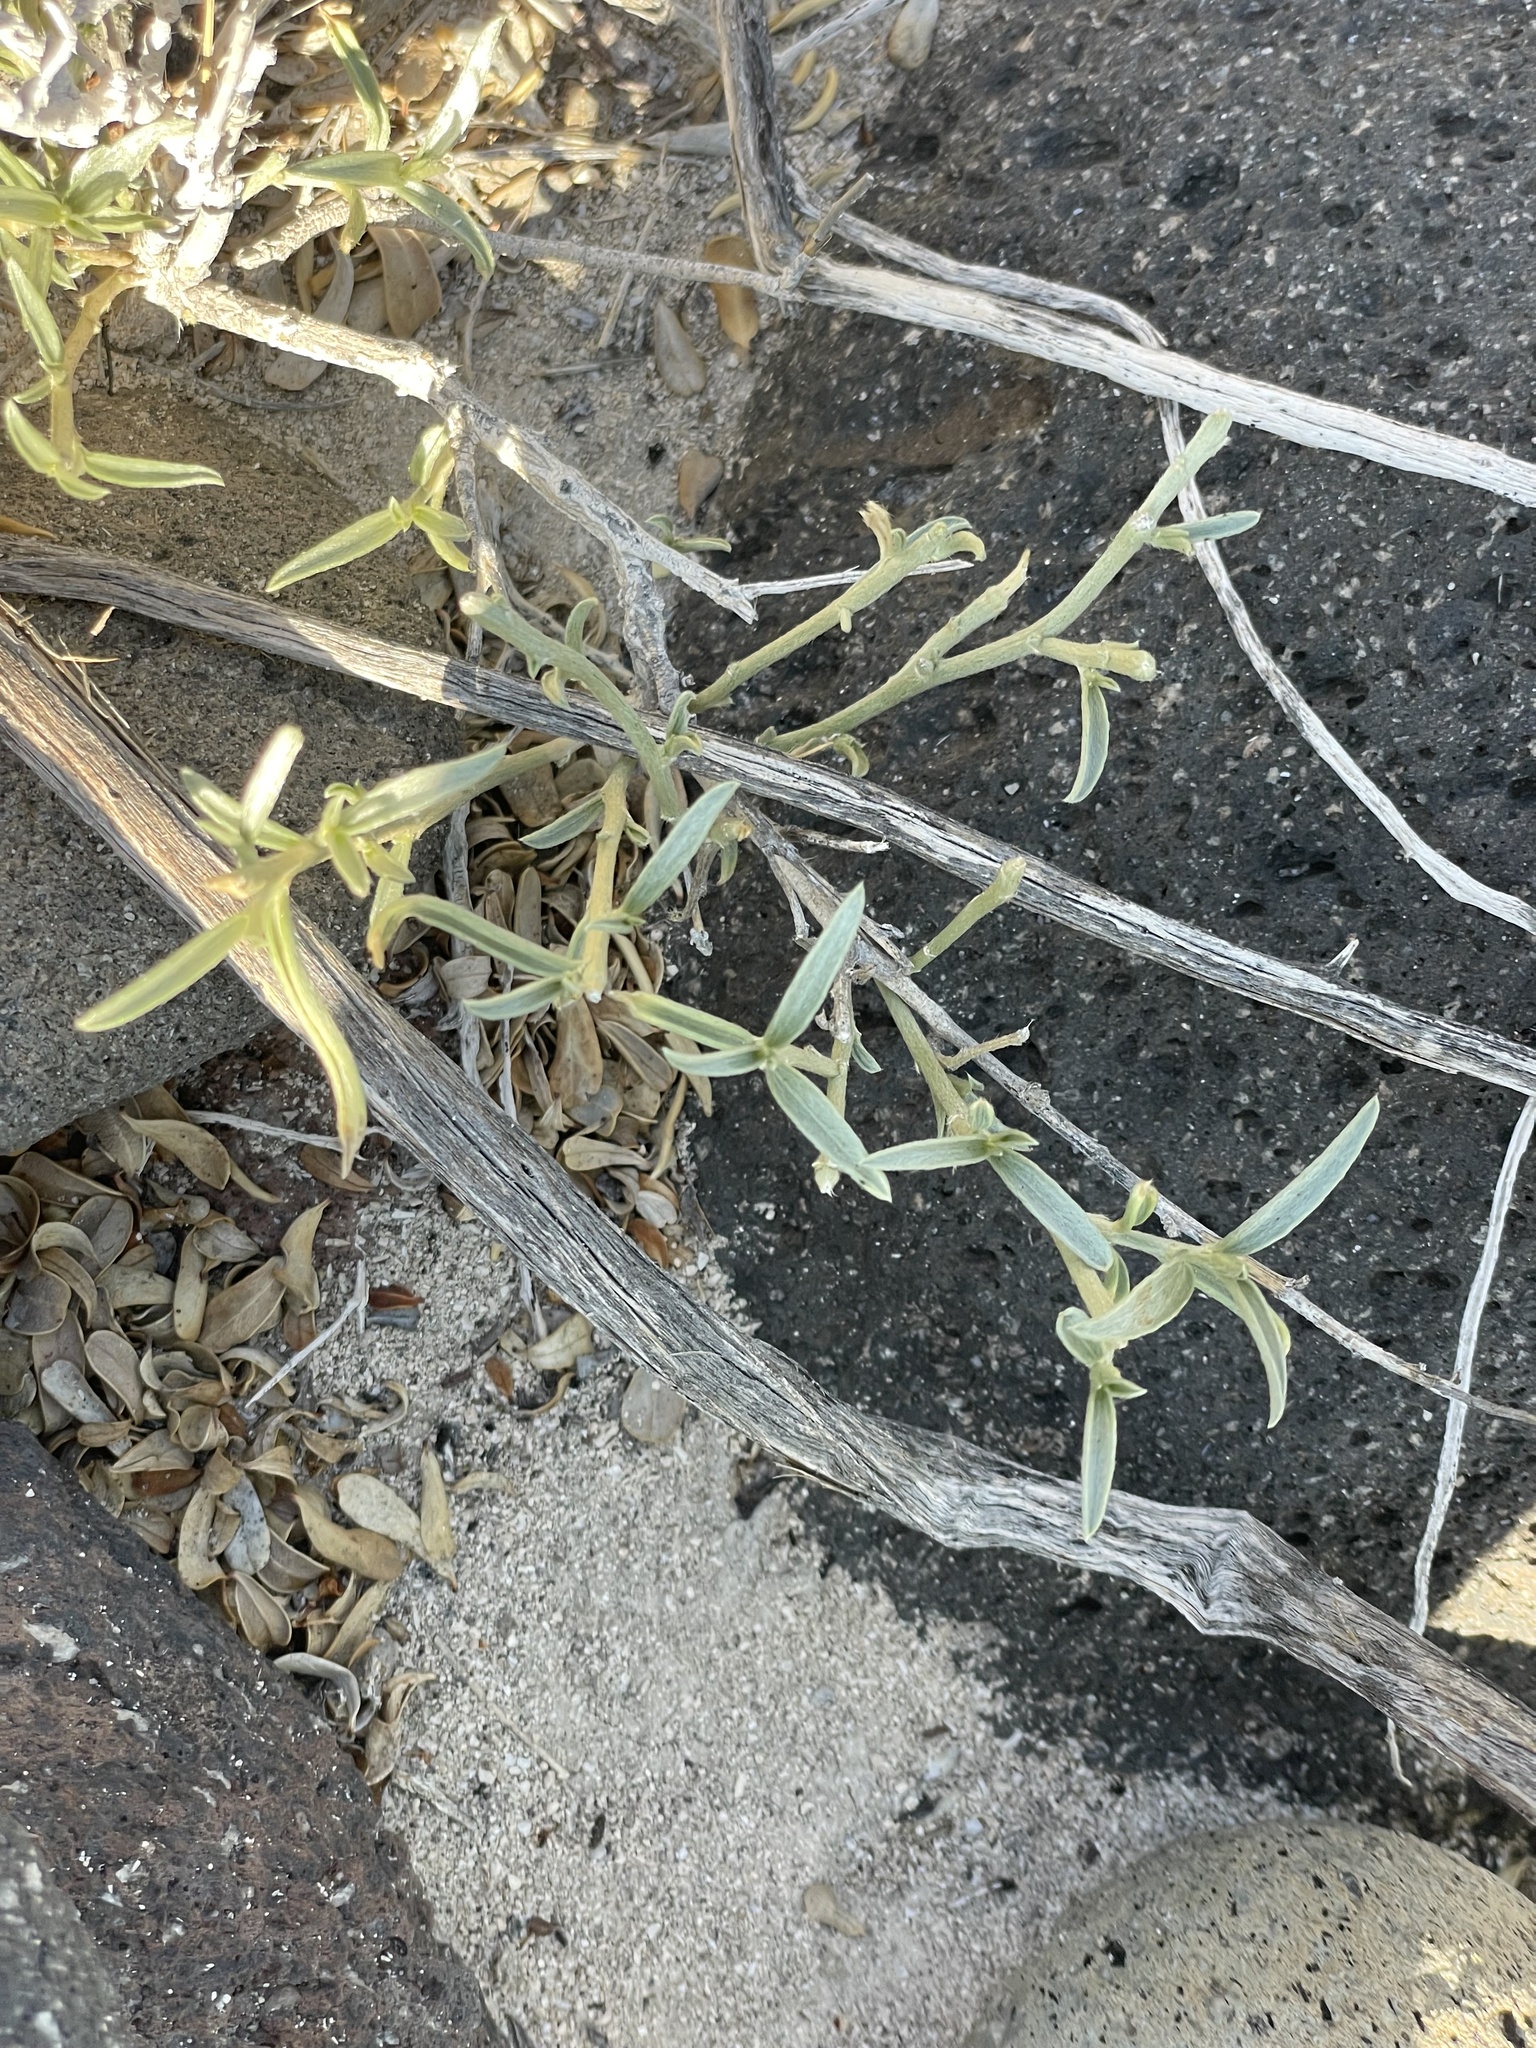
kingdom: Plantae
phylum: Tracheophyta
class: Magnoliopsida
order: Malpighiales
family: Euphorbiaceae
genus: Ditaxis
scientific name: Ditaxis lanceolata
